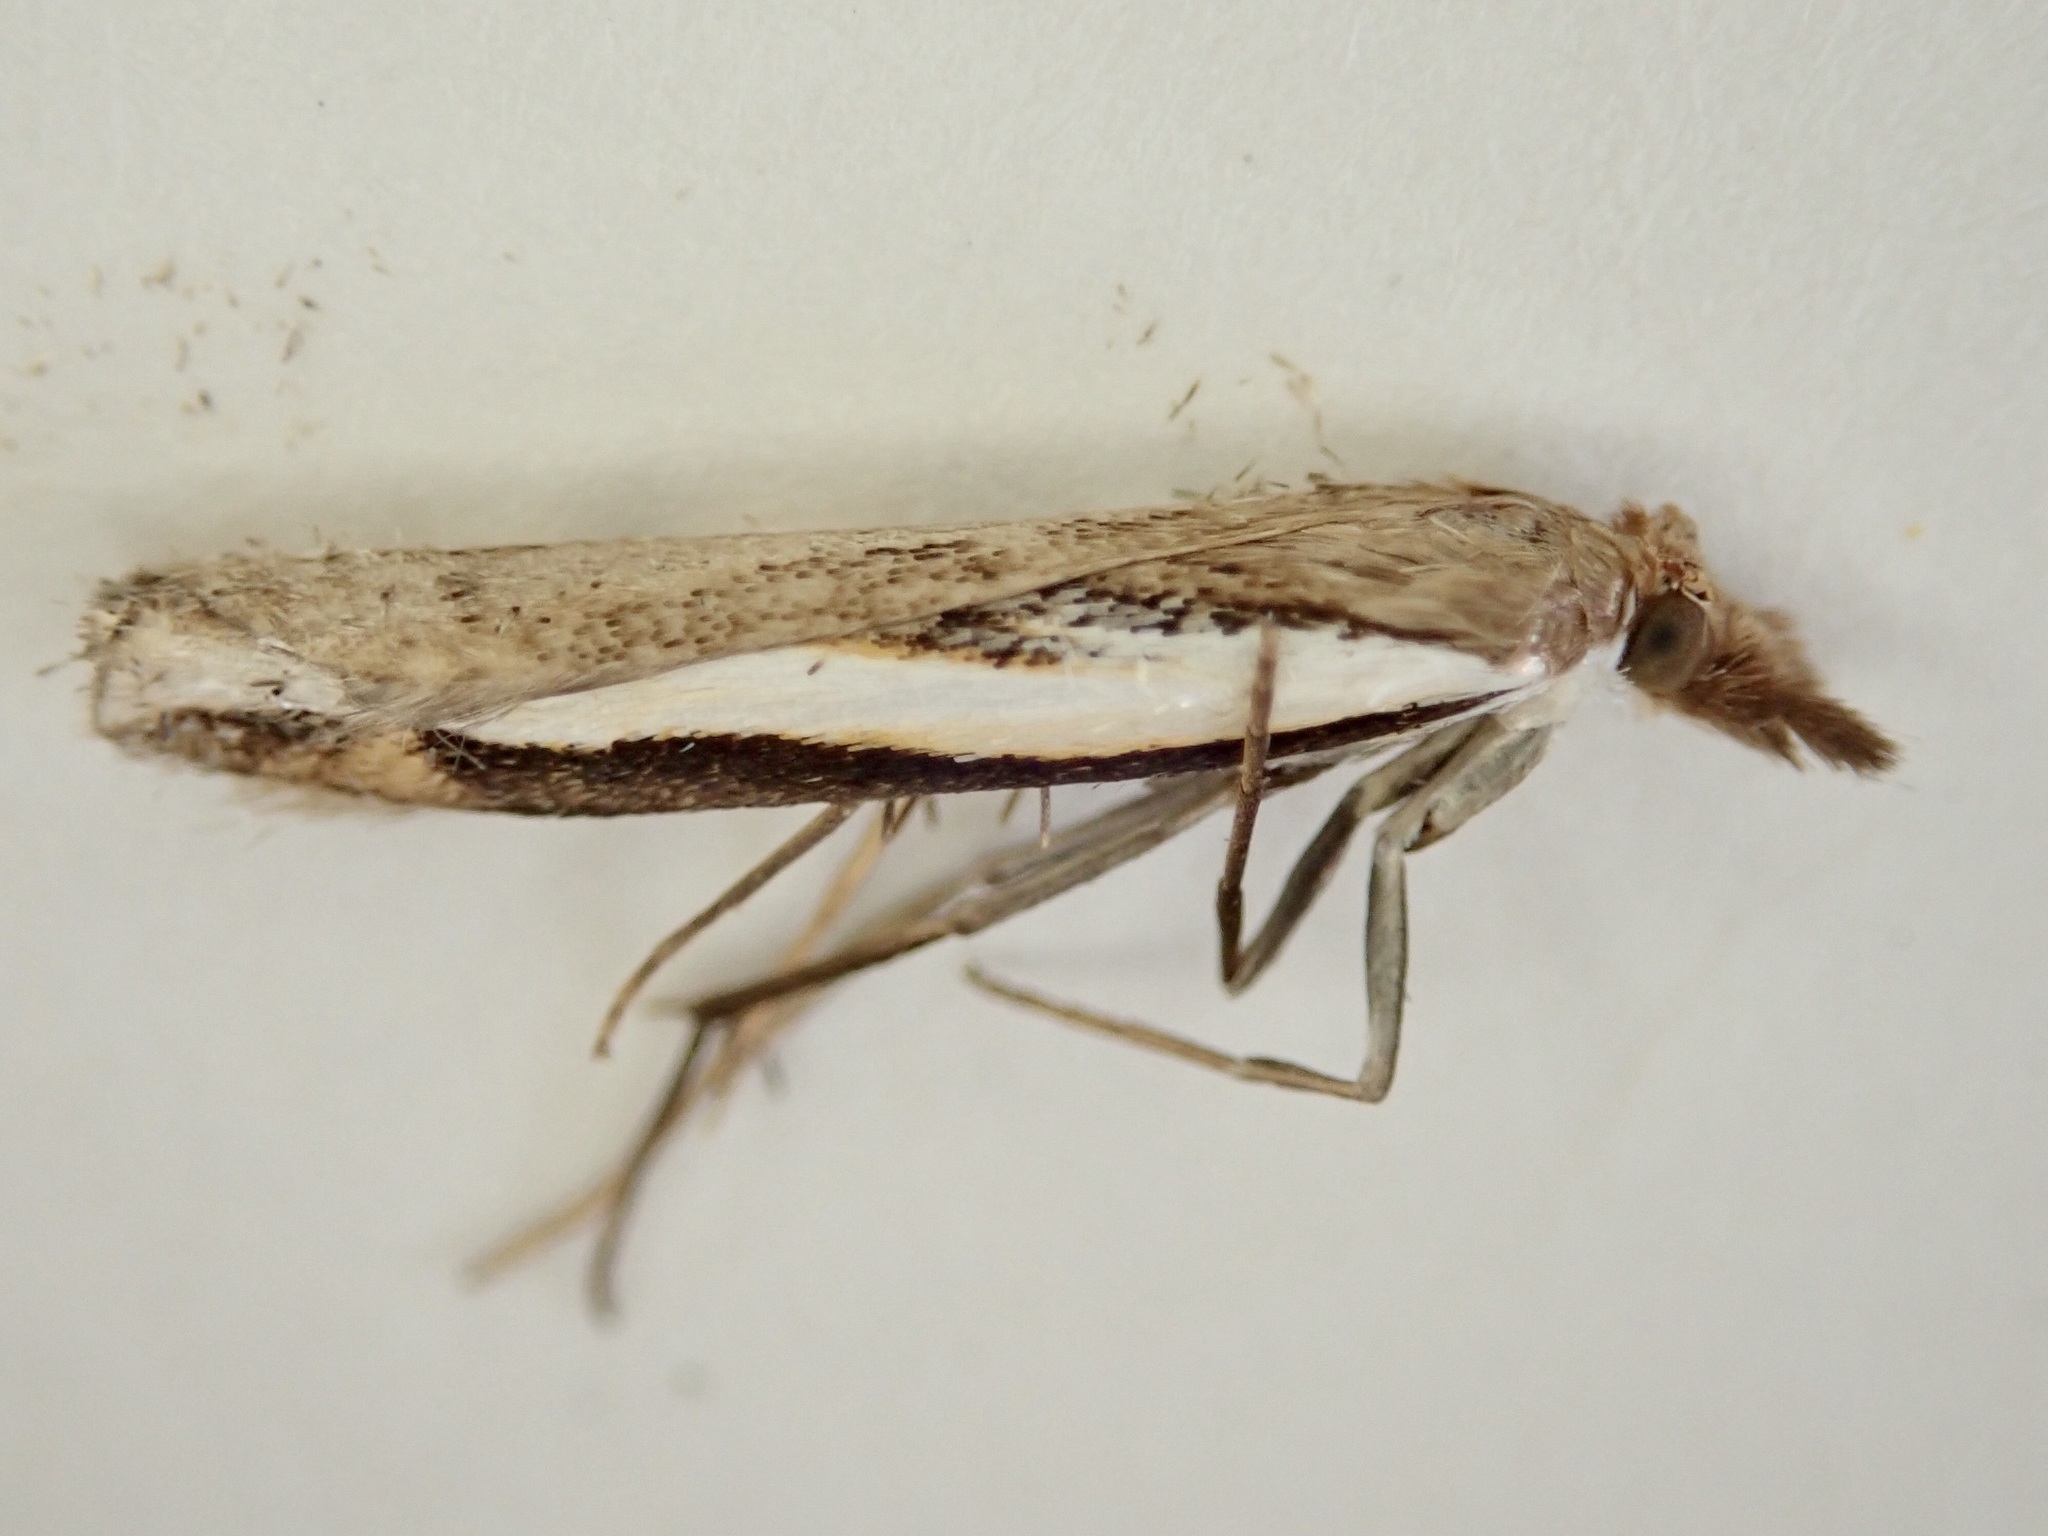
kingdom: Animalia
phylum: Arthropoda
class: Insecta
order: Lepidoptera
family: Crambidae
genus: Orocrambus
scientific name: Orocrambus flexuosellus
